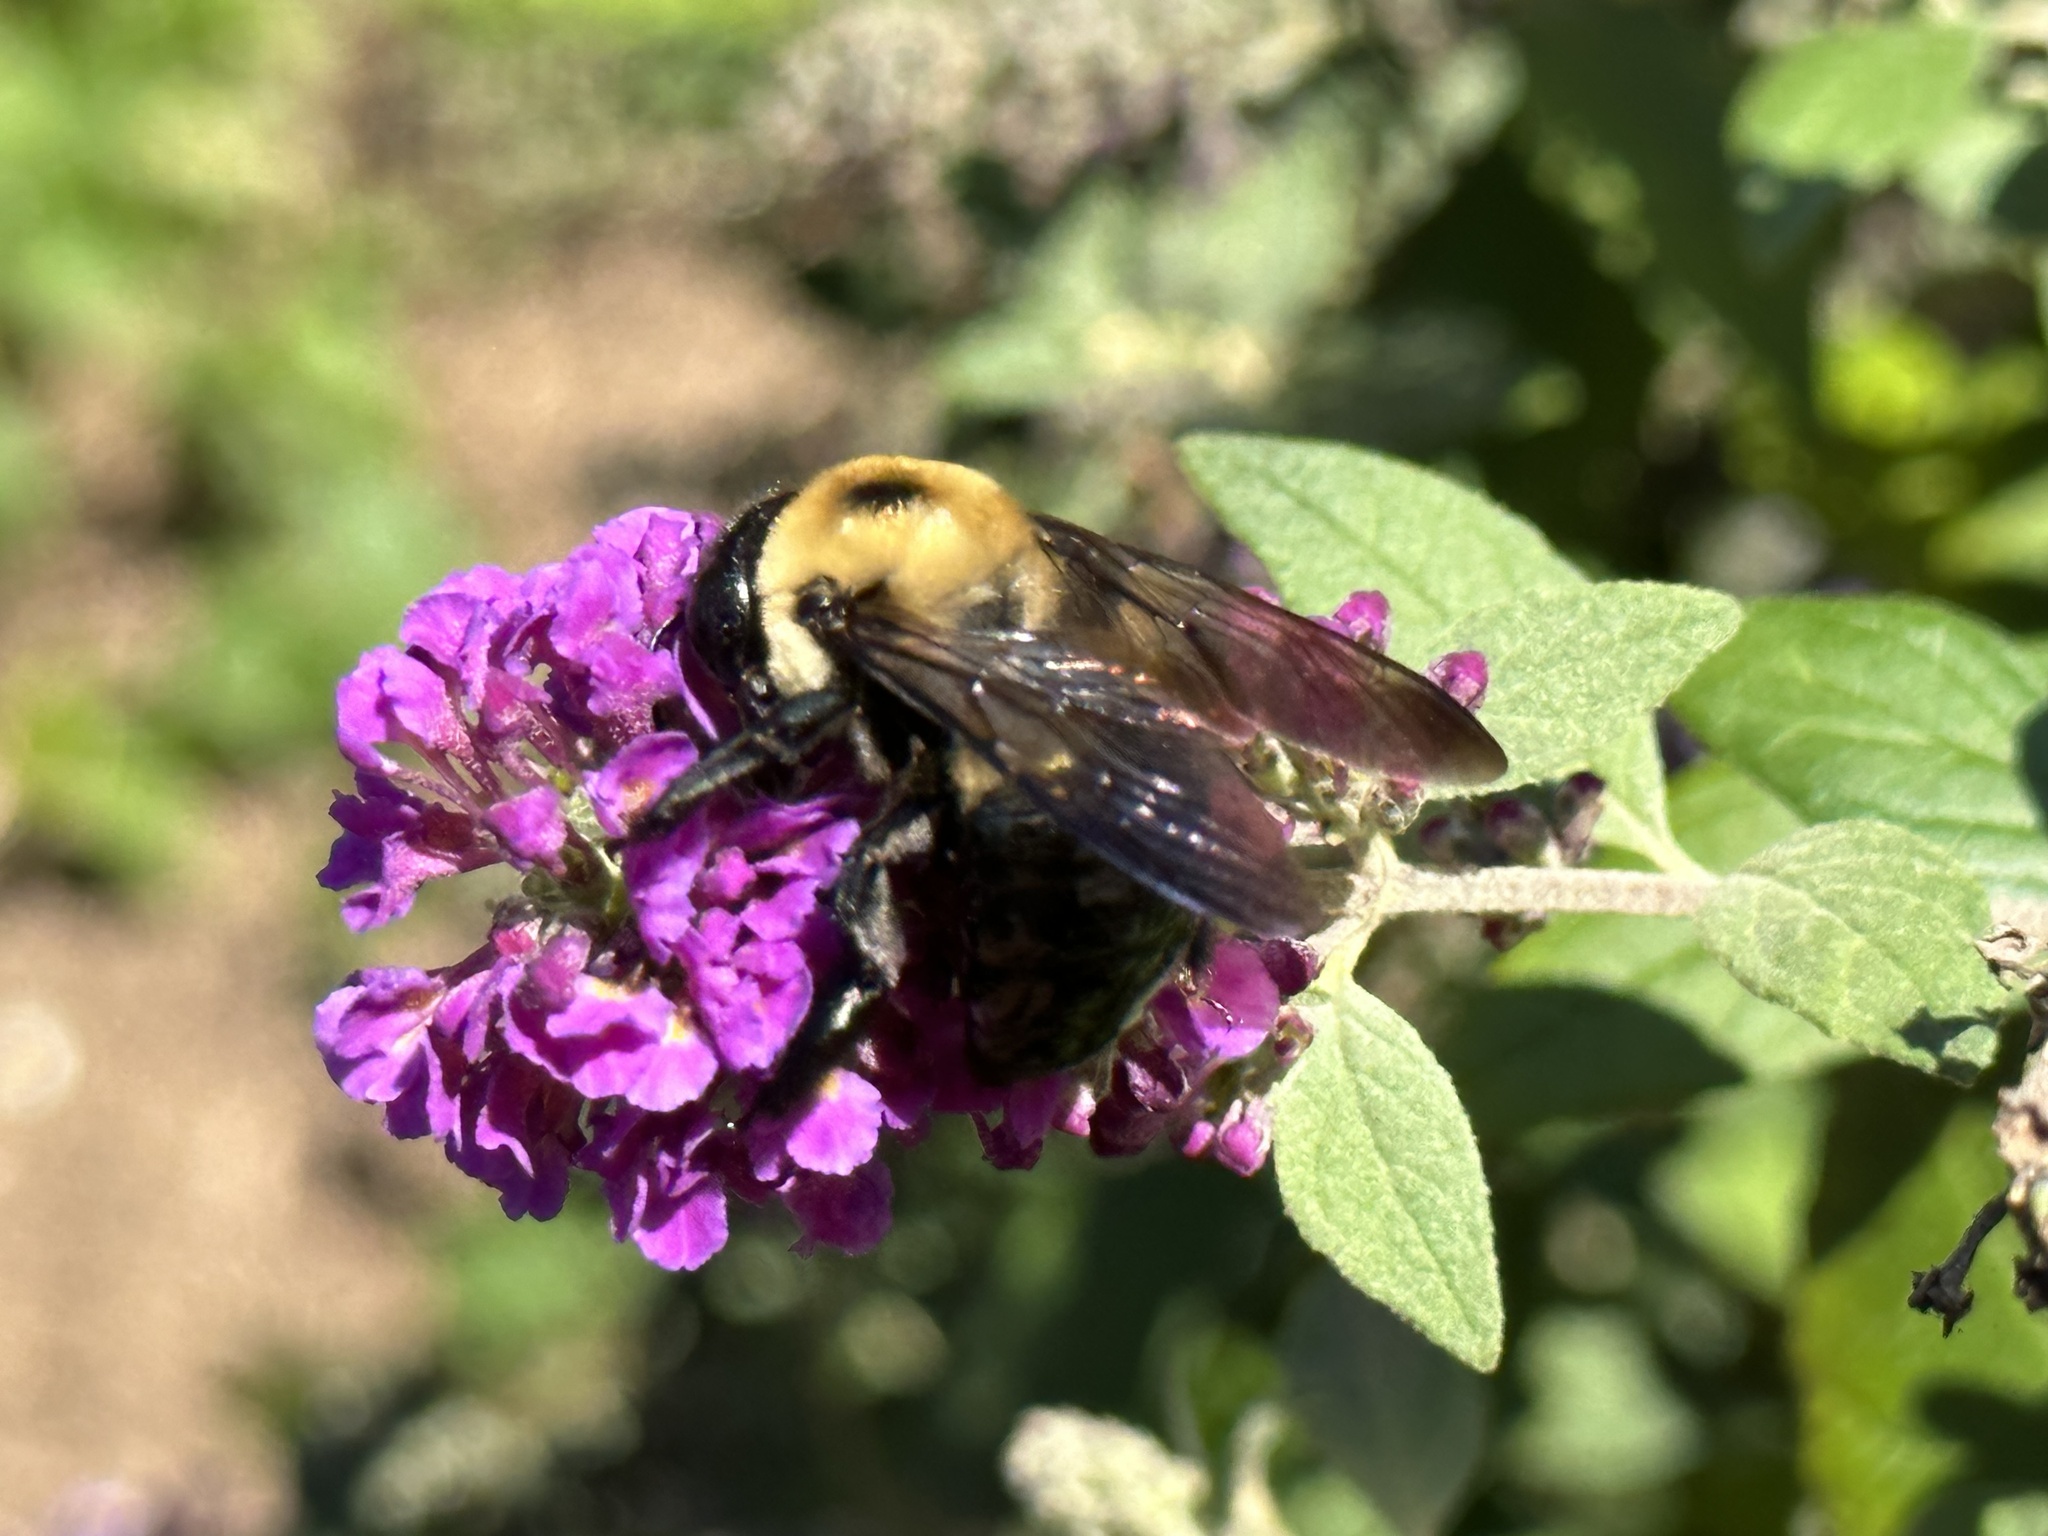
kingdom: Animalia
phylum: Arthropoda
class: Insecta
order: Hymenoptera
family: Apidae
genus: Xylocopa
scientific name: Xylocopa virginica
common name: Carpenter bee
